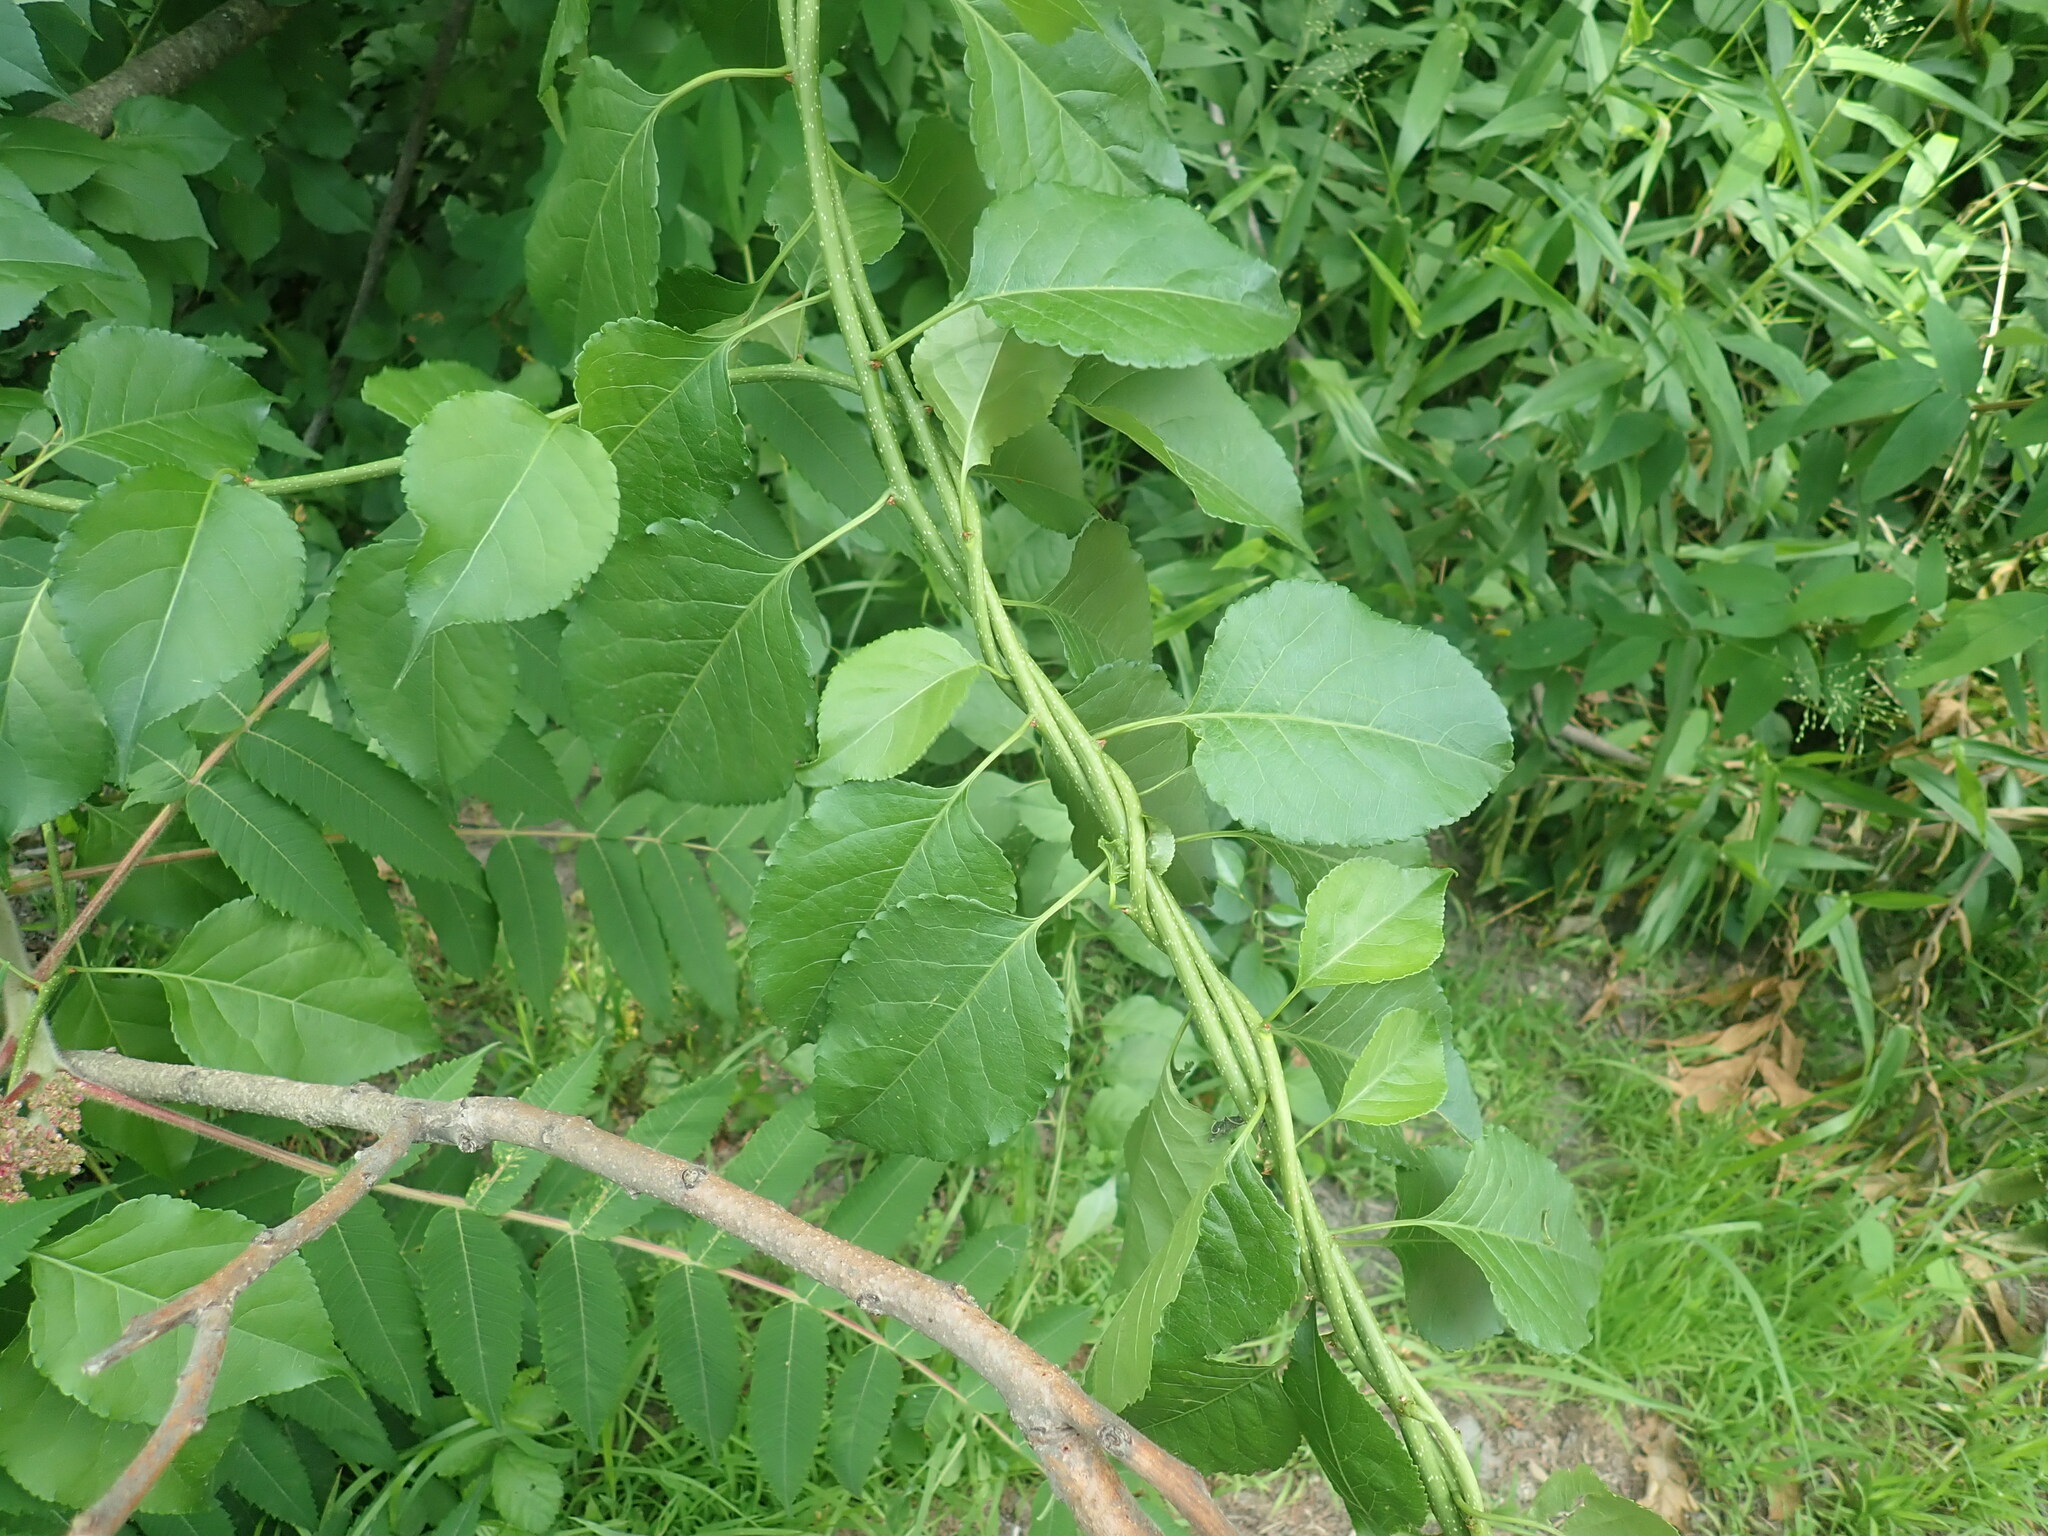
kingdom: Plantae
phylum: Tracheophyta
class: Magnoliopsida
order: Celastrales
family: Celastraceae
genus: Celastrus
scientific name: Celastrus orbiculatus
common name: Oriental bittersweet
